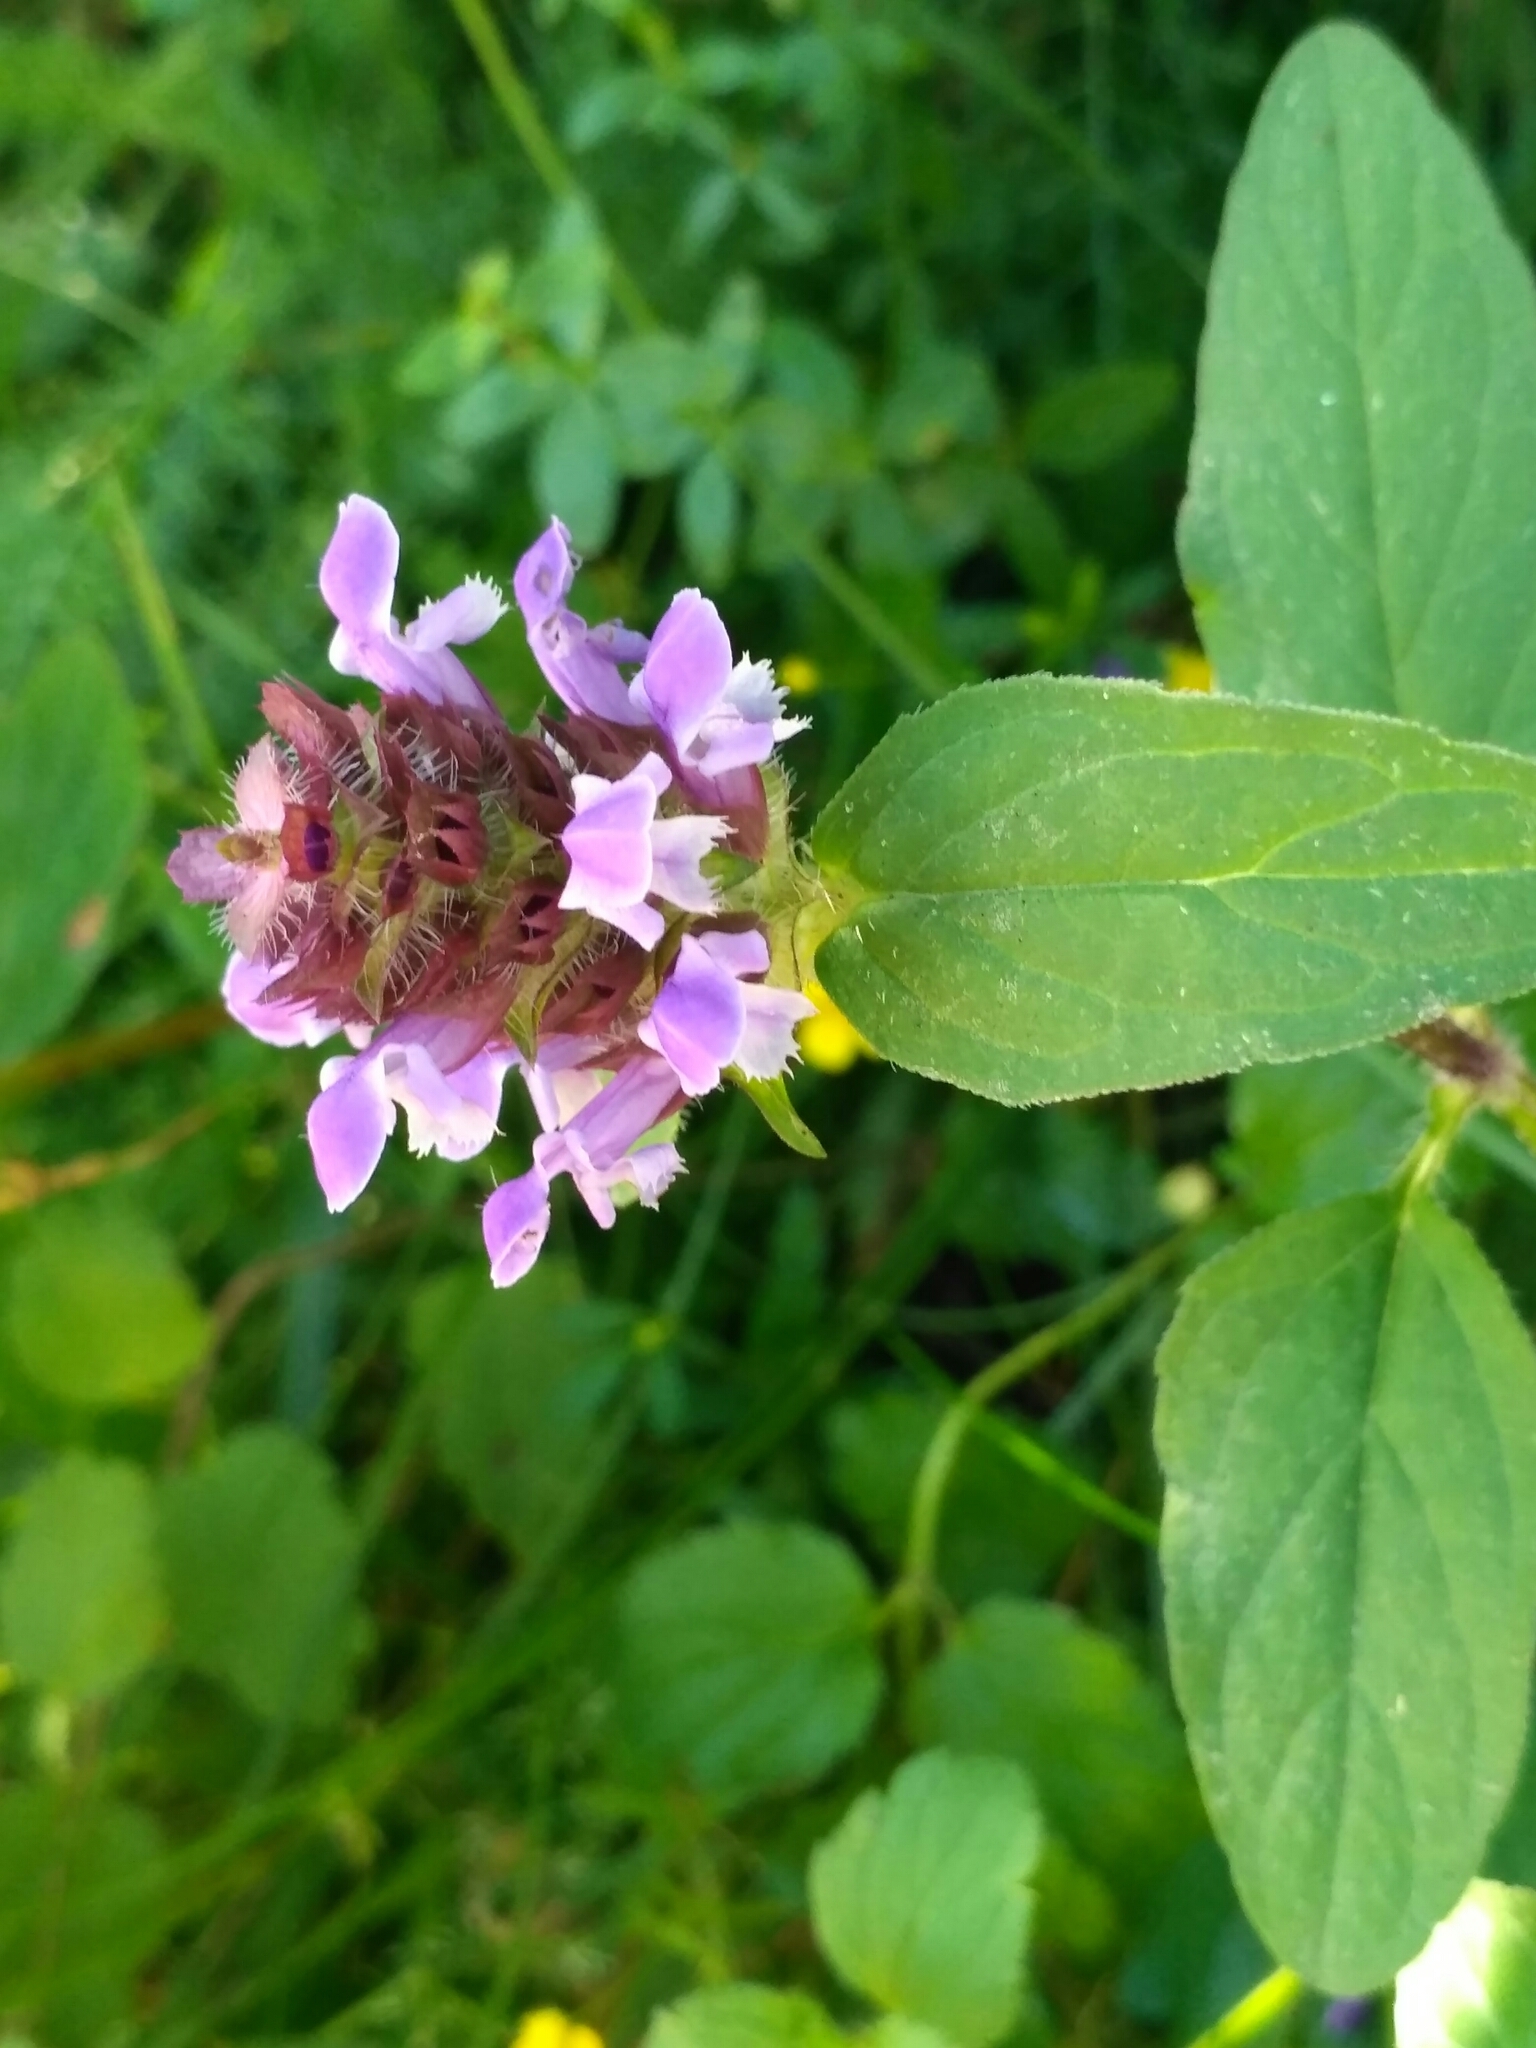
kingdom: Plantae
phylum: Tracheophyta
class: Magnoliopsida
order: Lamiales
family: Lamiaceae
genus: Prunella
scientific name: Prunella vulgaris
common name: Heal-all
